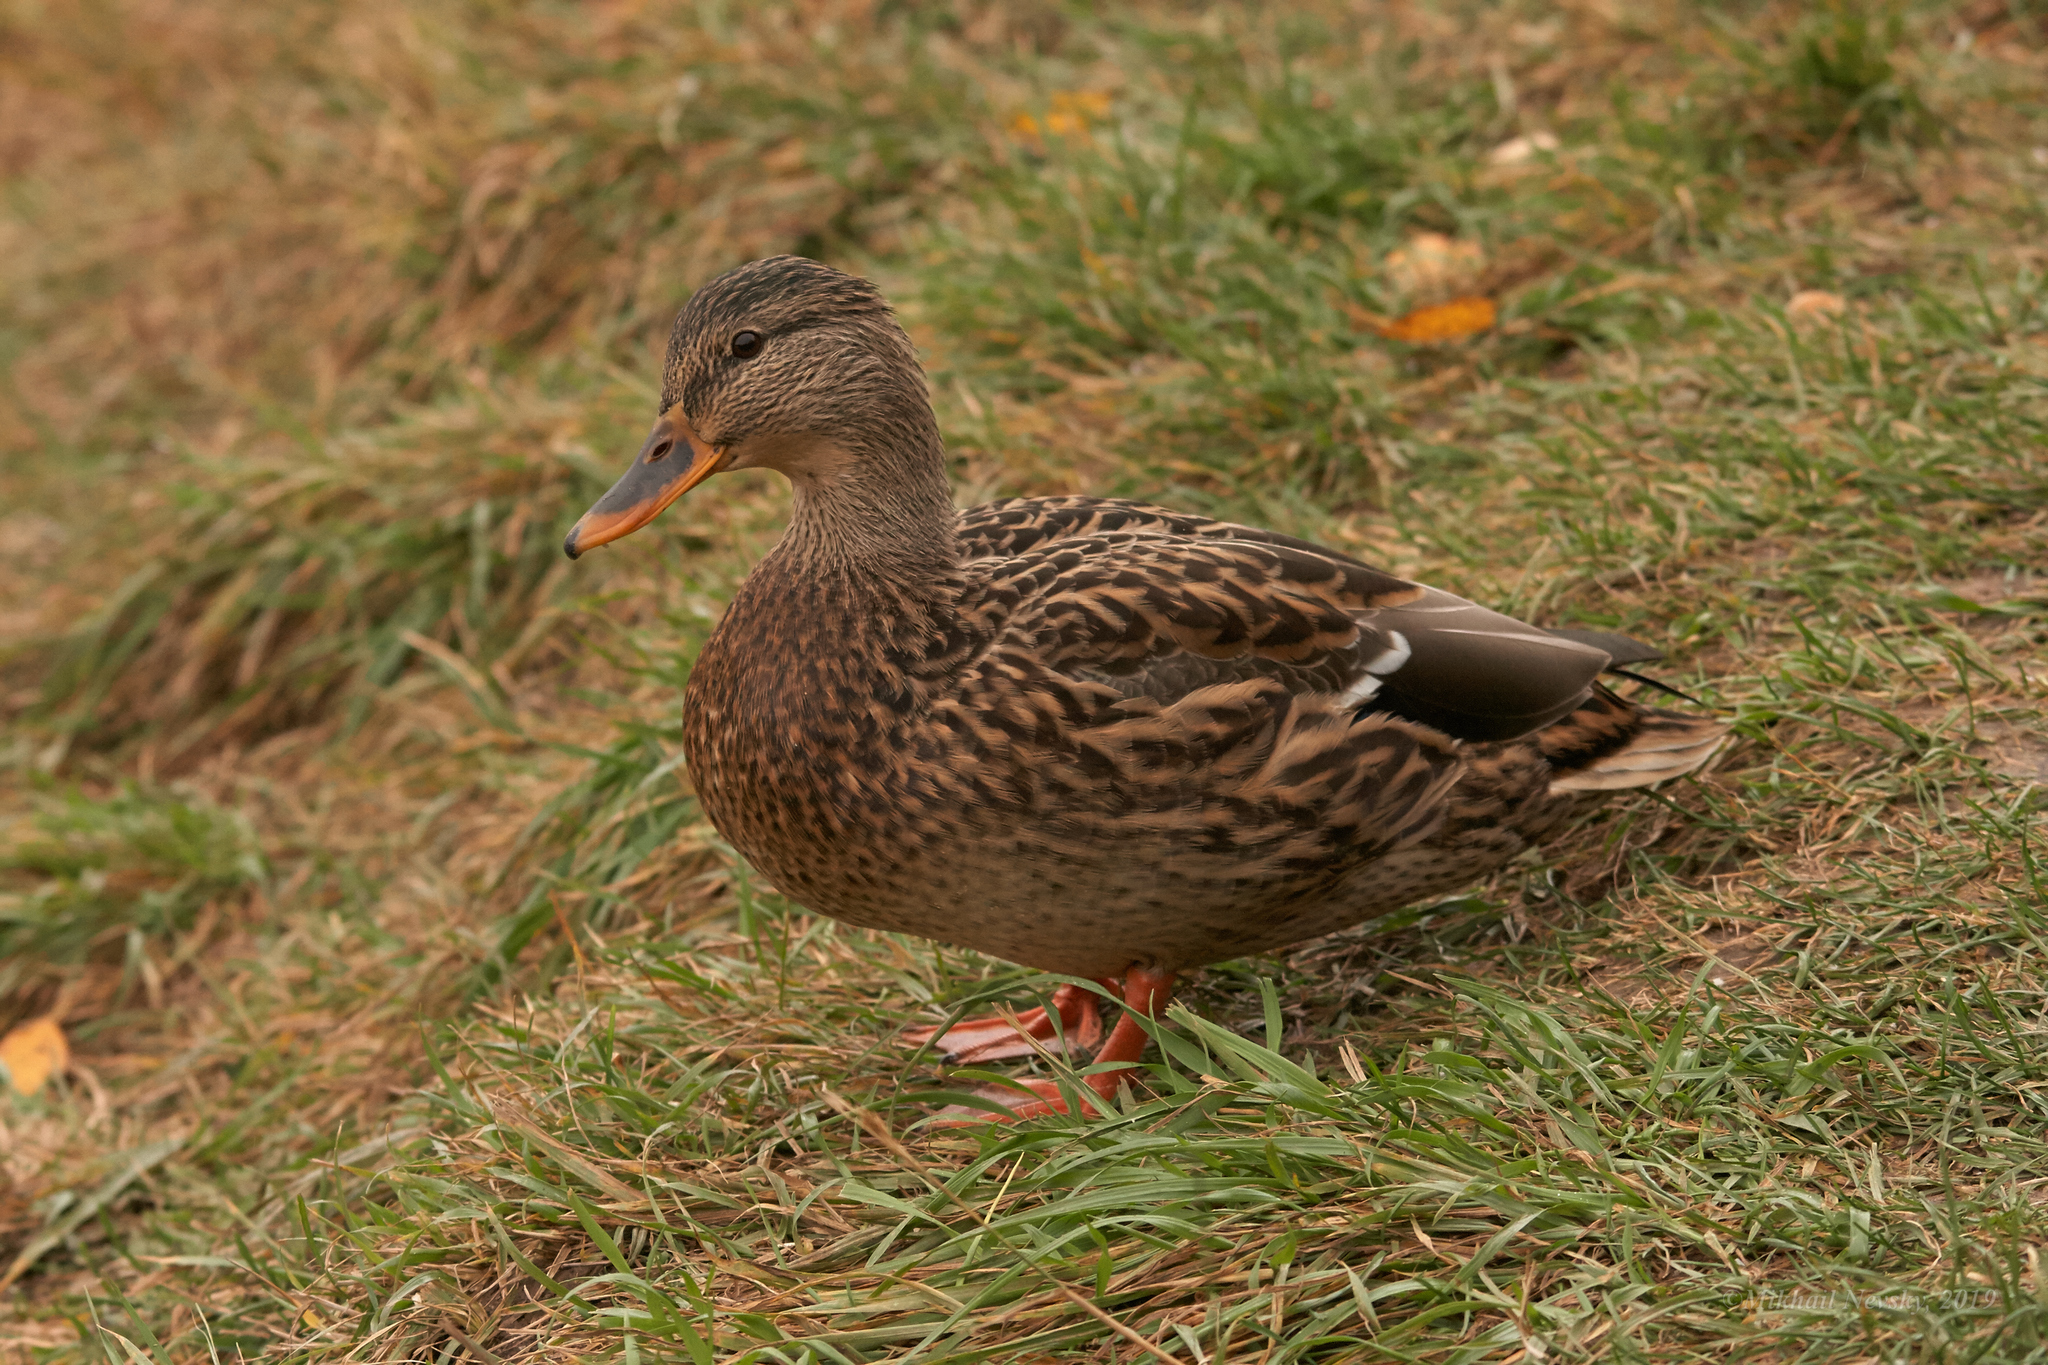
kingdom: Animalia
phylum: Chordata
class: Aves
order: Anseriformes
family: Anatidae
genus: Anas
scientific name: Anas platyrhynchos
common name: Mallard
